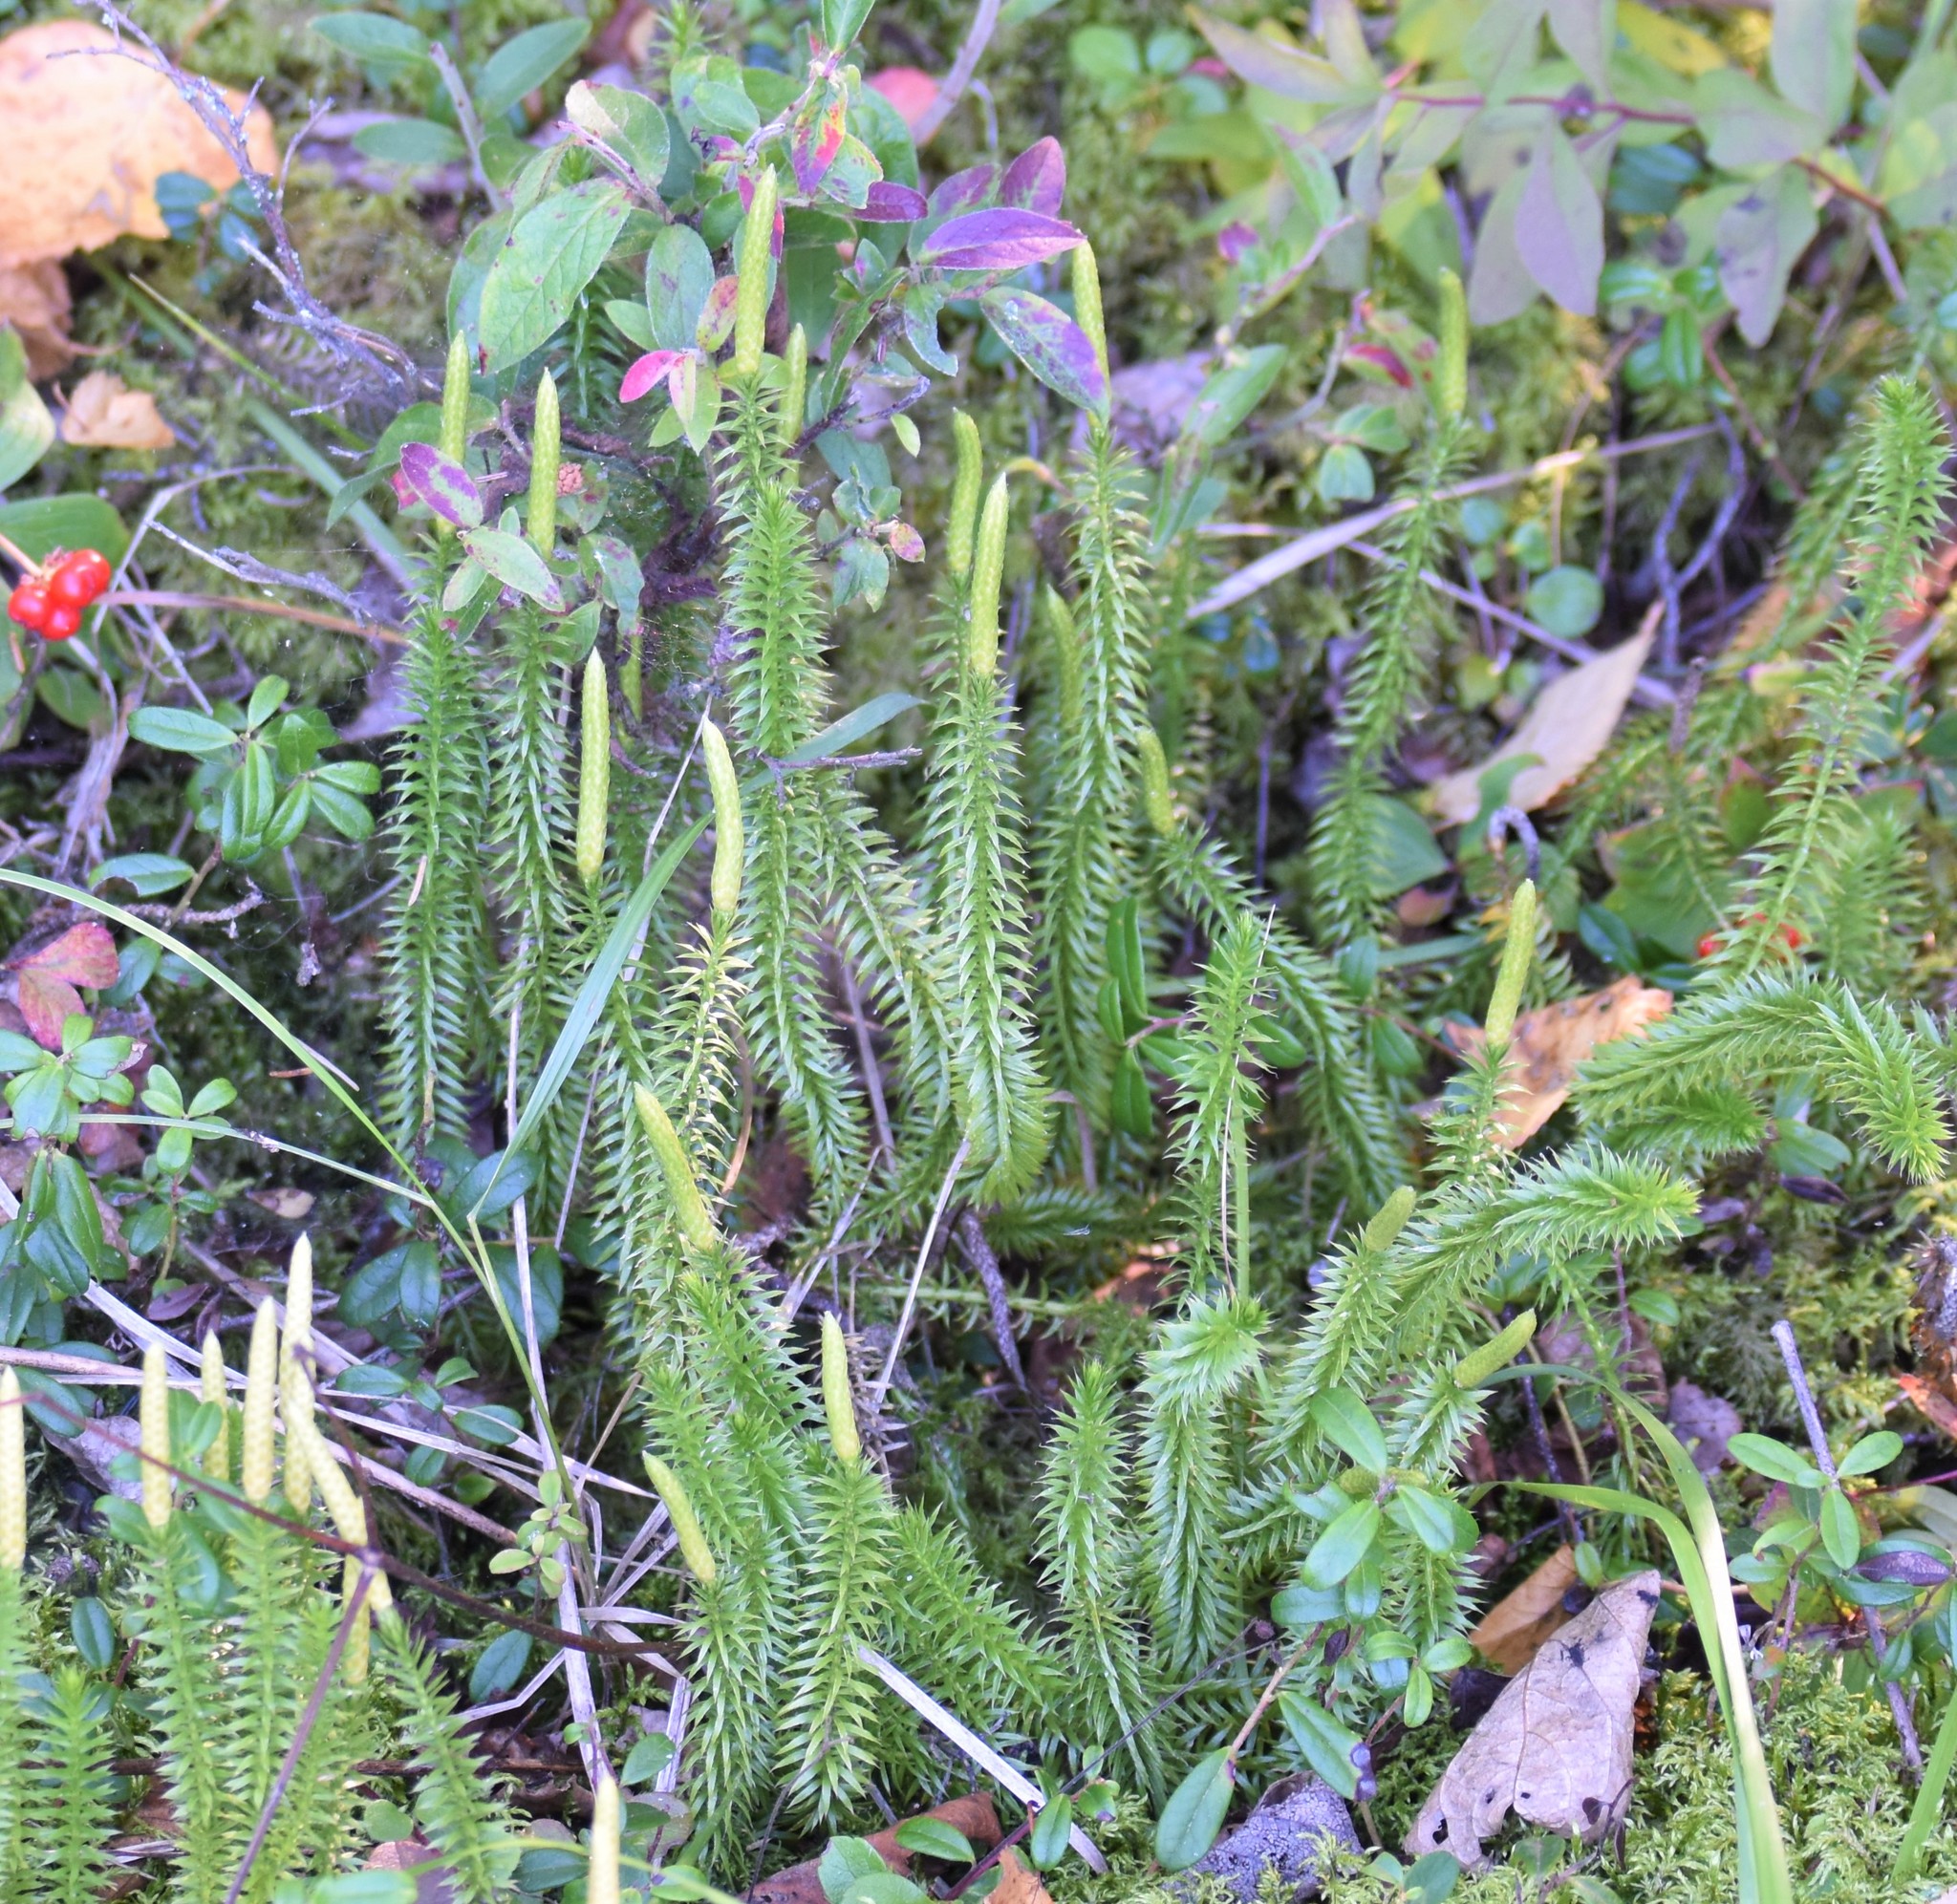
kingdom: Plantae
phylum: Tracheophyta
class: Lycopodiopsida
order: Lycopodiales
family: Lycopodiaceae
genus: Spinulum
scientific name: Spinulum annotinum
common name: Interrupted club-moss
